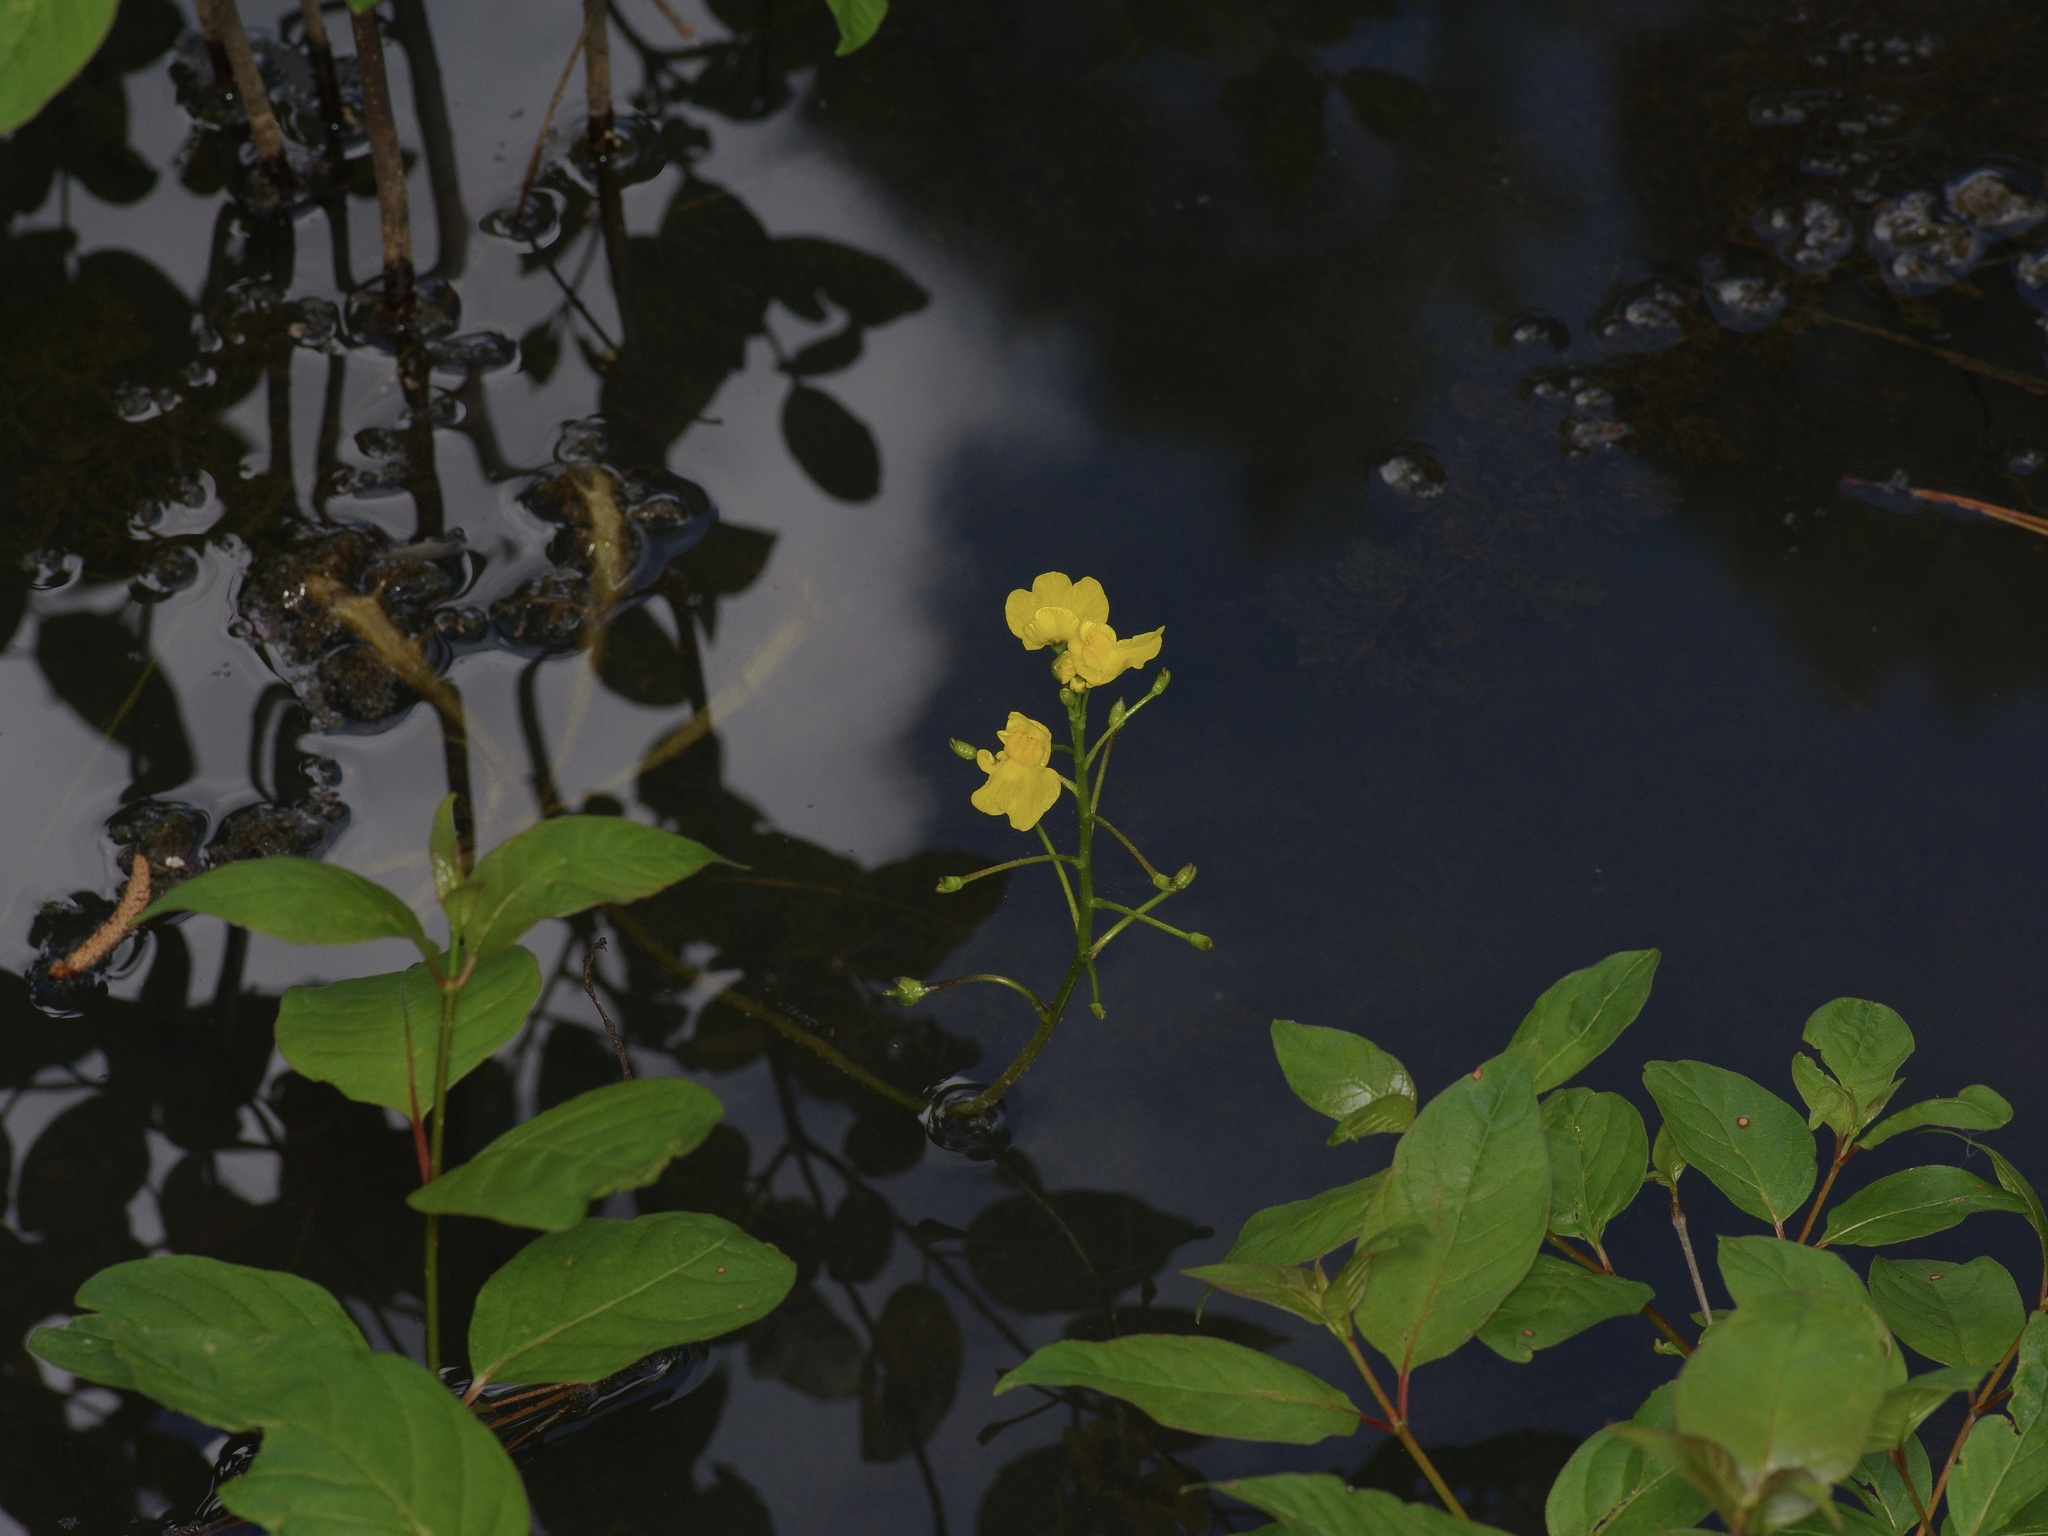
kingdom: Plantae
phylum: Tracheophyta
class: Magnoliopsida
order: Lamiales
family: Lentibulariaceae
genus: Utricularia
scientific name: Utricularia inflata
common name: Floating bladderwort
